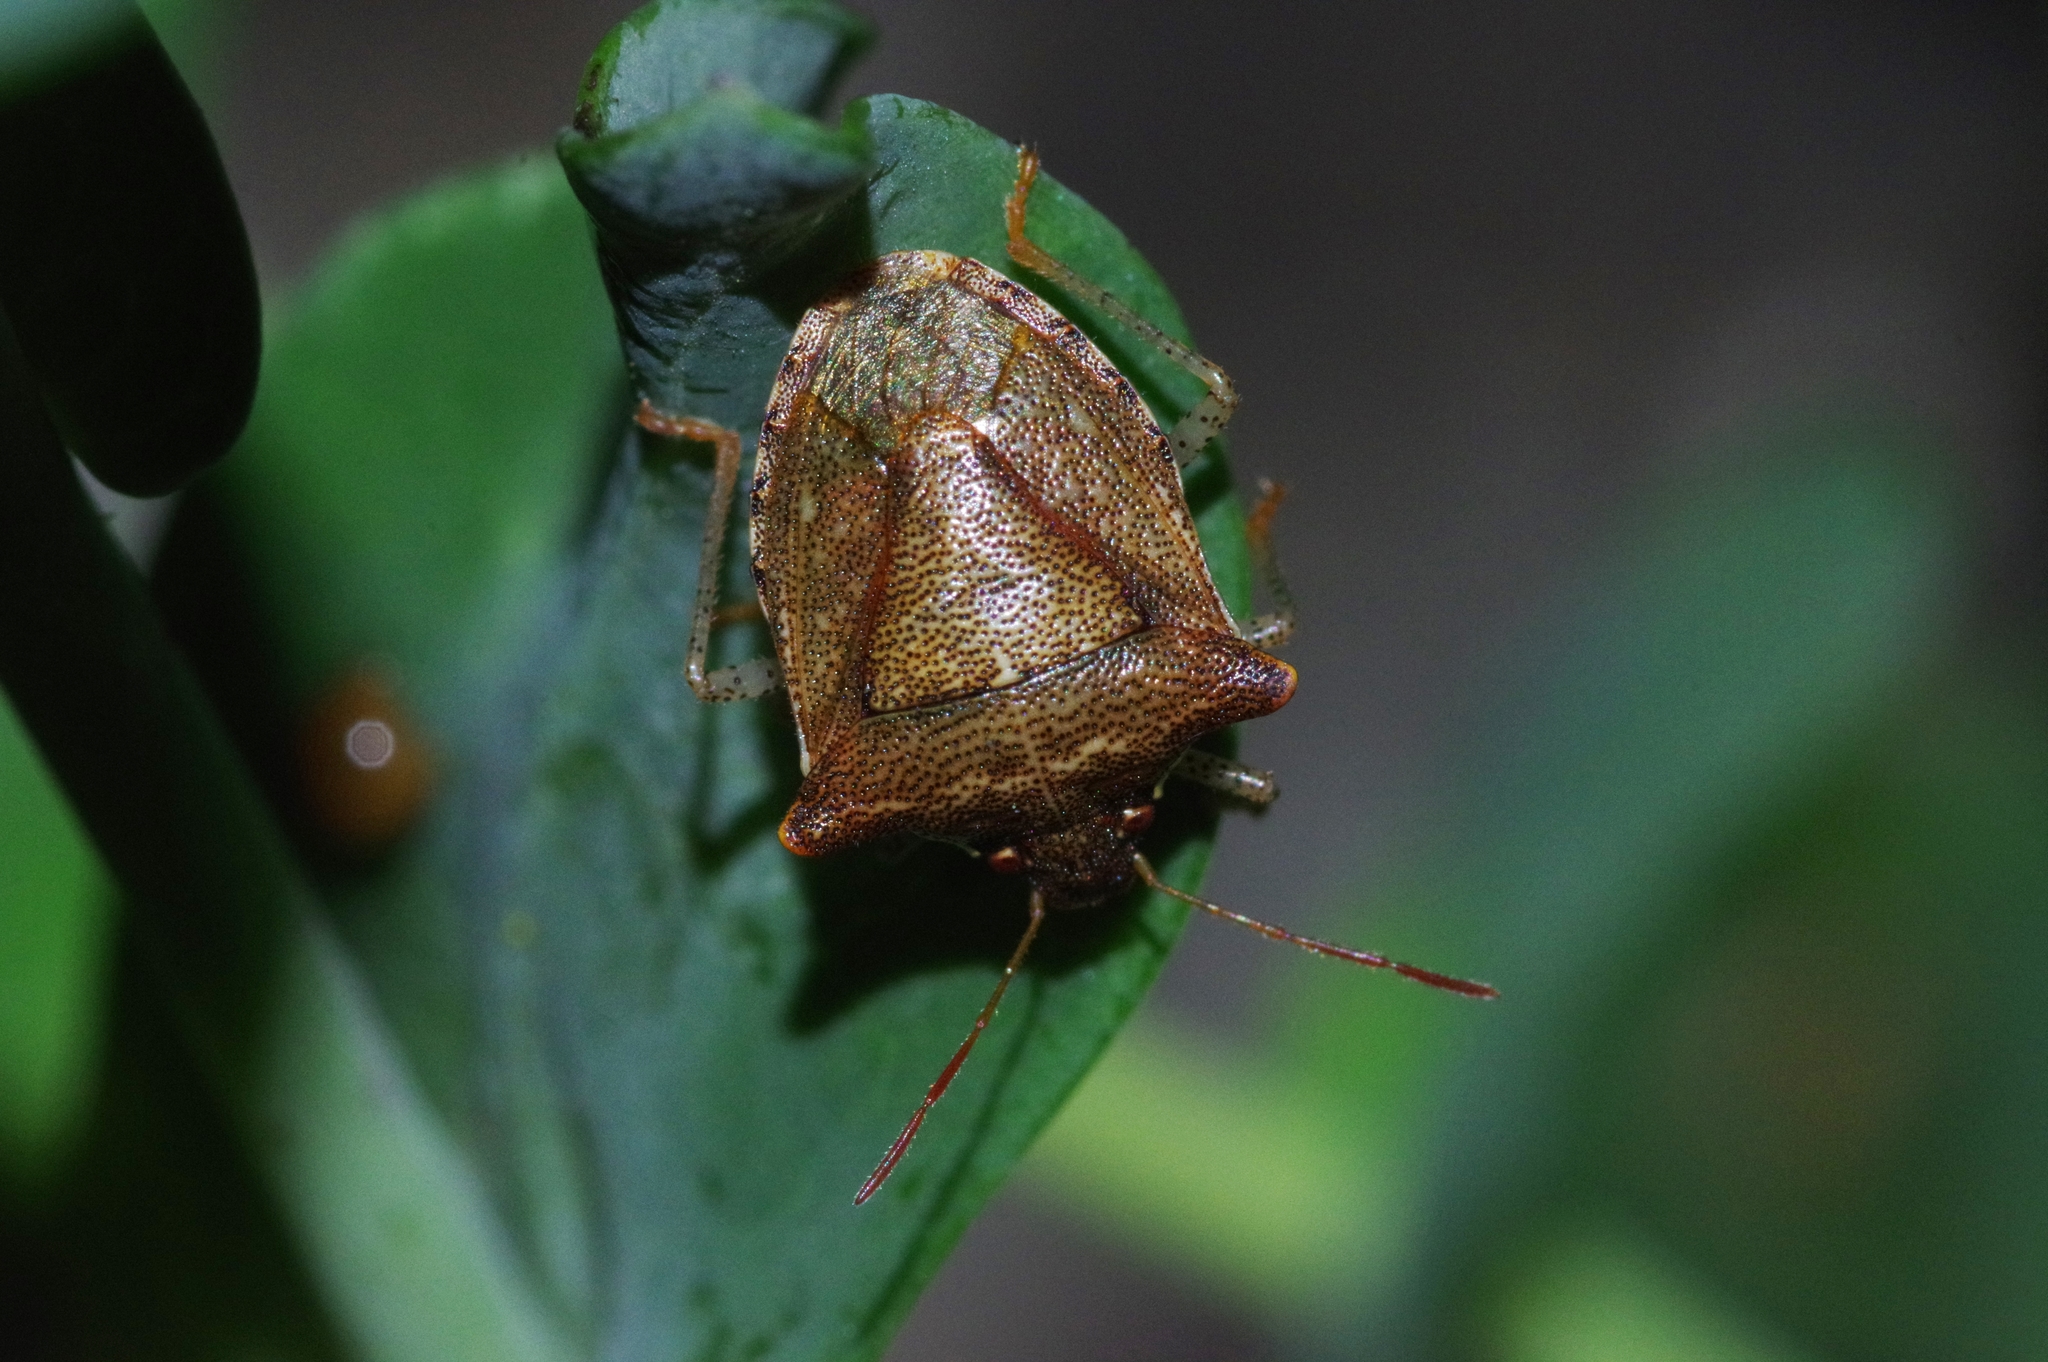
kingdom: Animalia
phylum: Arthropoda
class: Insecta
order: Hemiptera
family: Pentatomidae
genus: Carbula
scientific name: Carbula crassiventris
